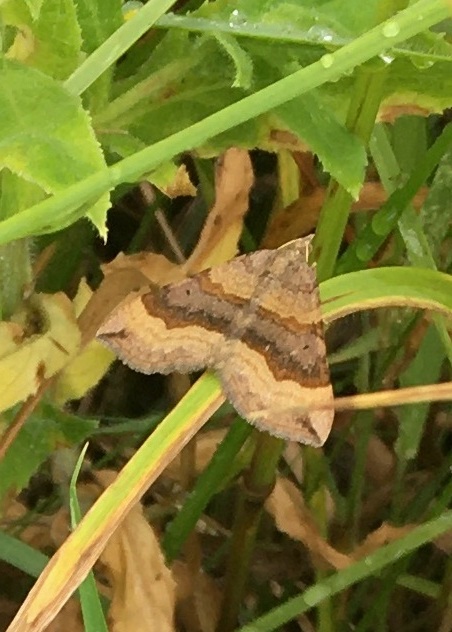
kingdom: Animalia
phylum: Arthropoda
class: Insecta
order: Lepidoptera
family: Geometridae
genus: Scotopteryx
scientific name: Scotopteryx chenopodiata
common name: Shaded broad-bar
